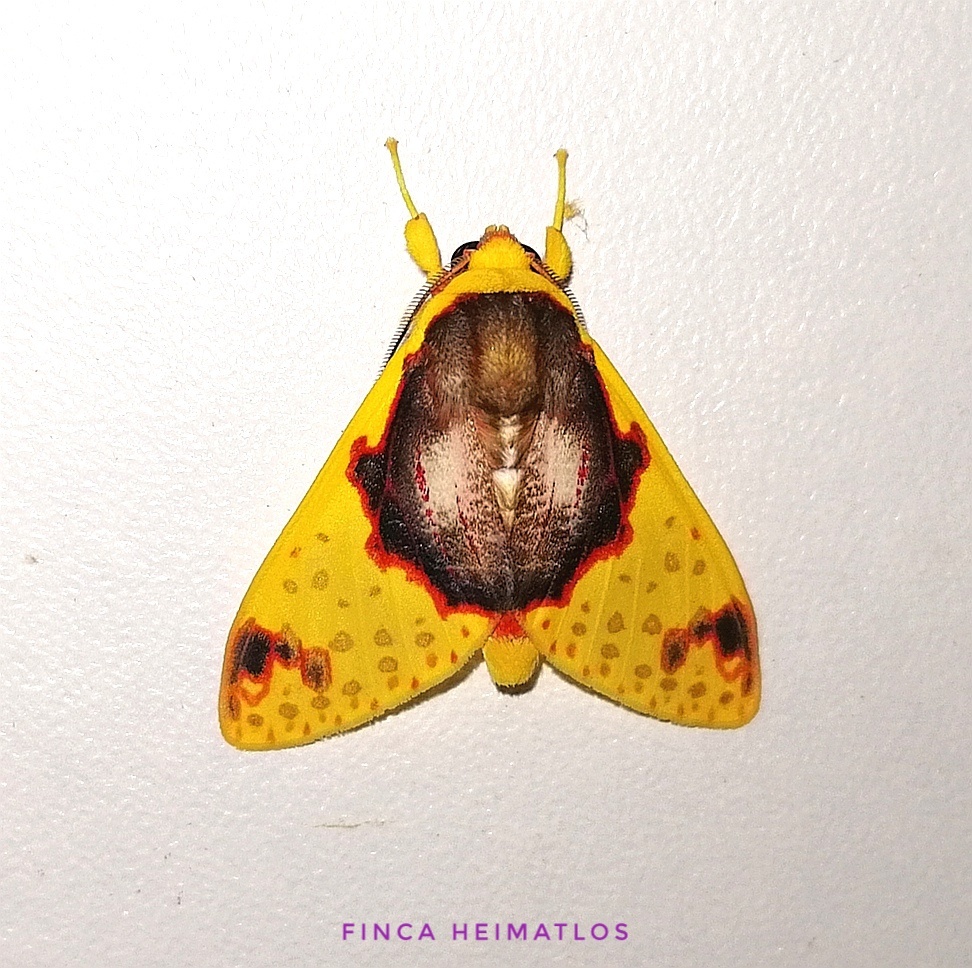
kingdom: Animalia
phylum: Arthropoda
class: Insecta
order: Lepidoptera
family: Erebidae
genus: Amaxia
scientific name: Amaxia flavicollis
